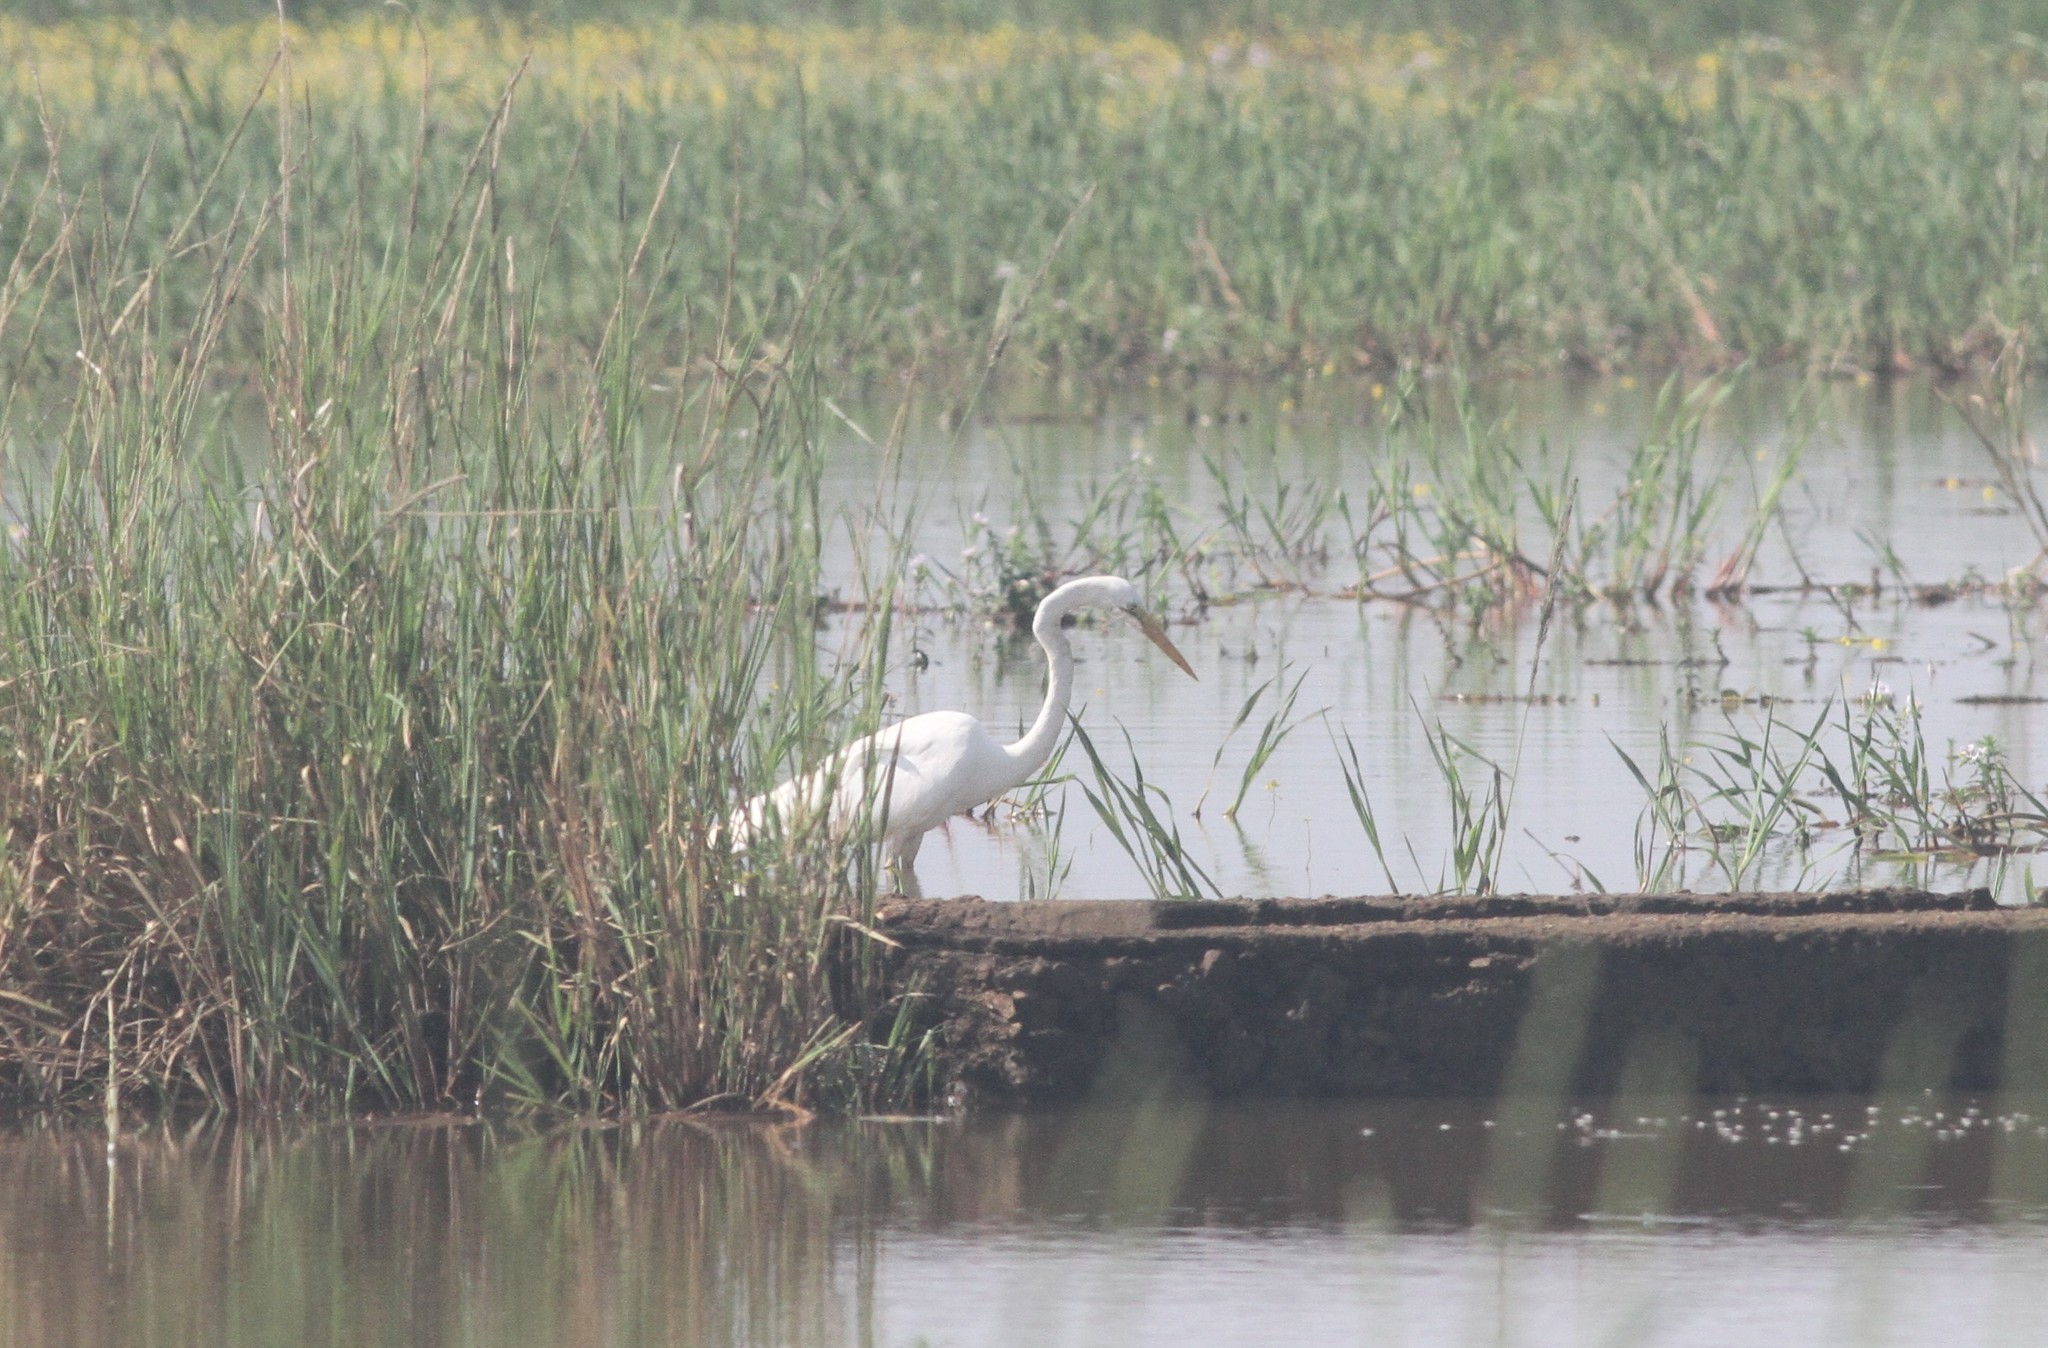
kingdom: Animalia
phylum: Chordata
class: Aves
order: Pelecaniformes
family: Ardeidae
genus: Ardea
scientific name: Ardea alba
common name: Great egret
